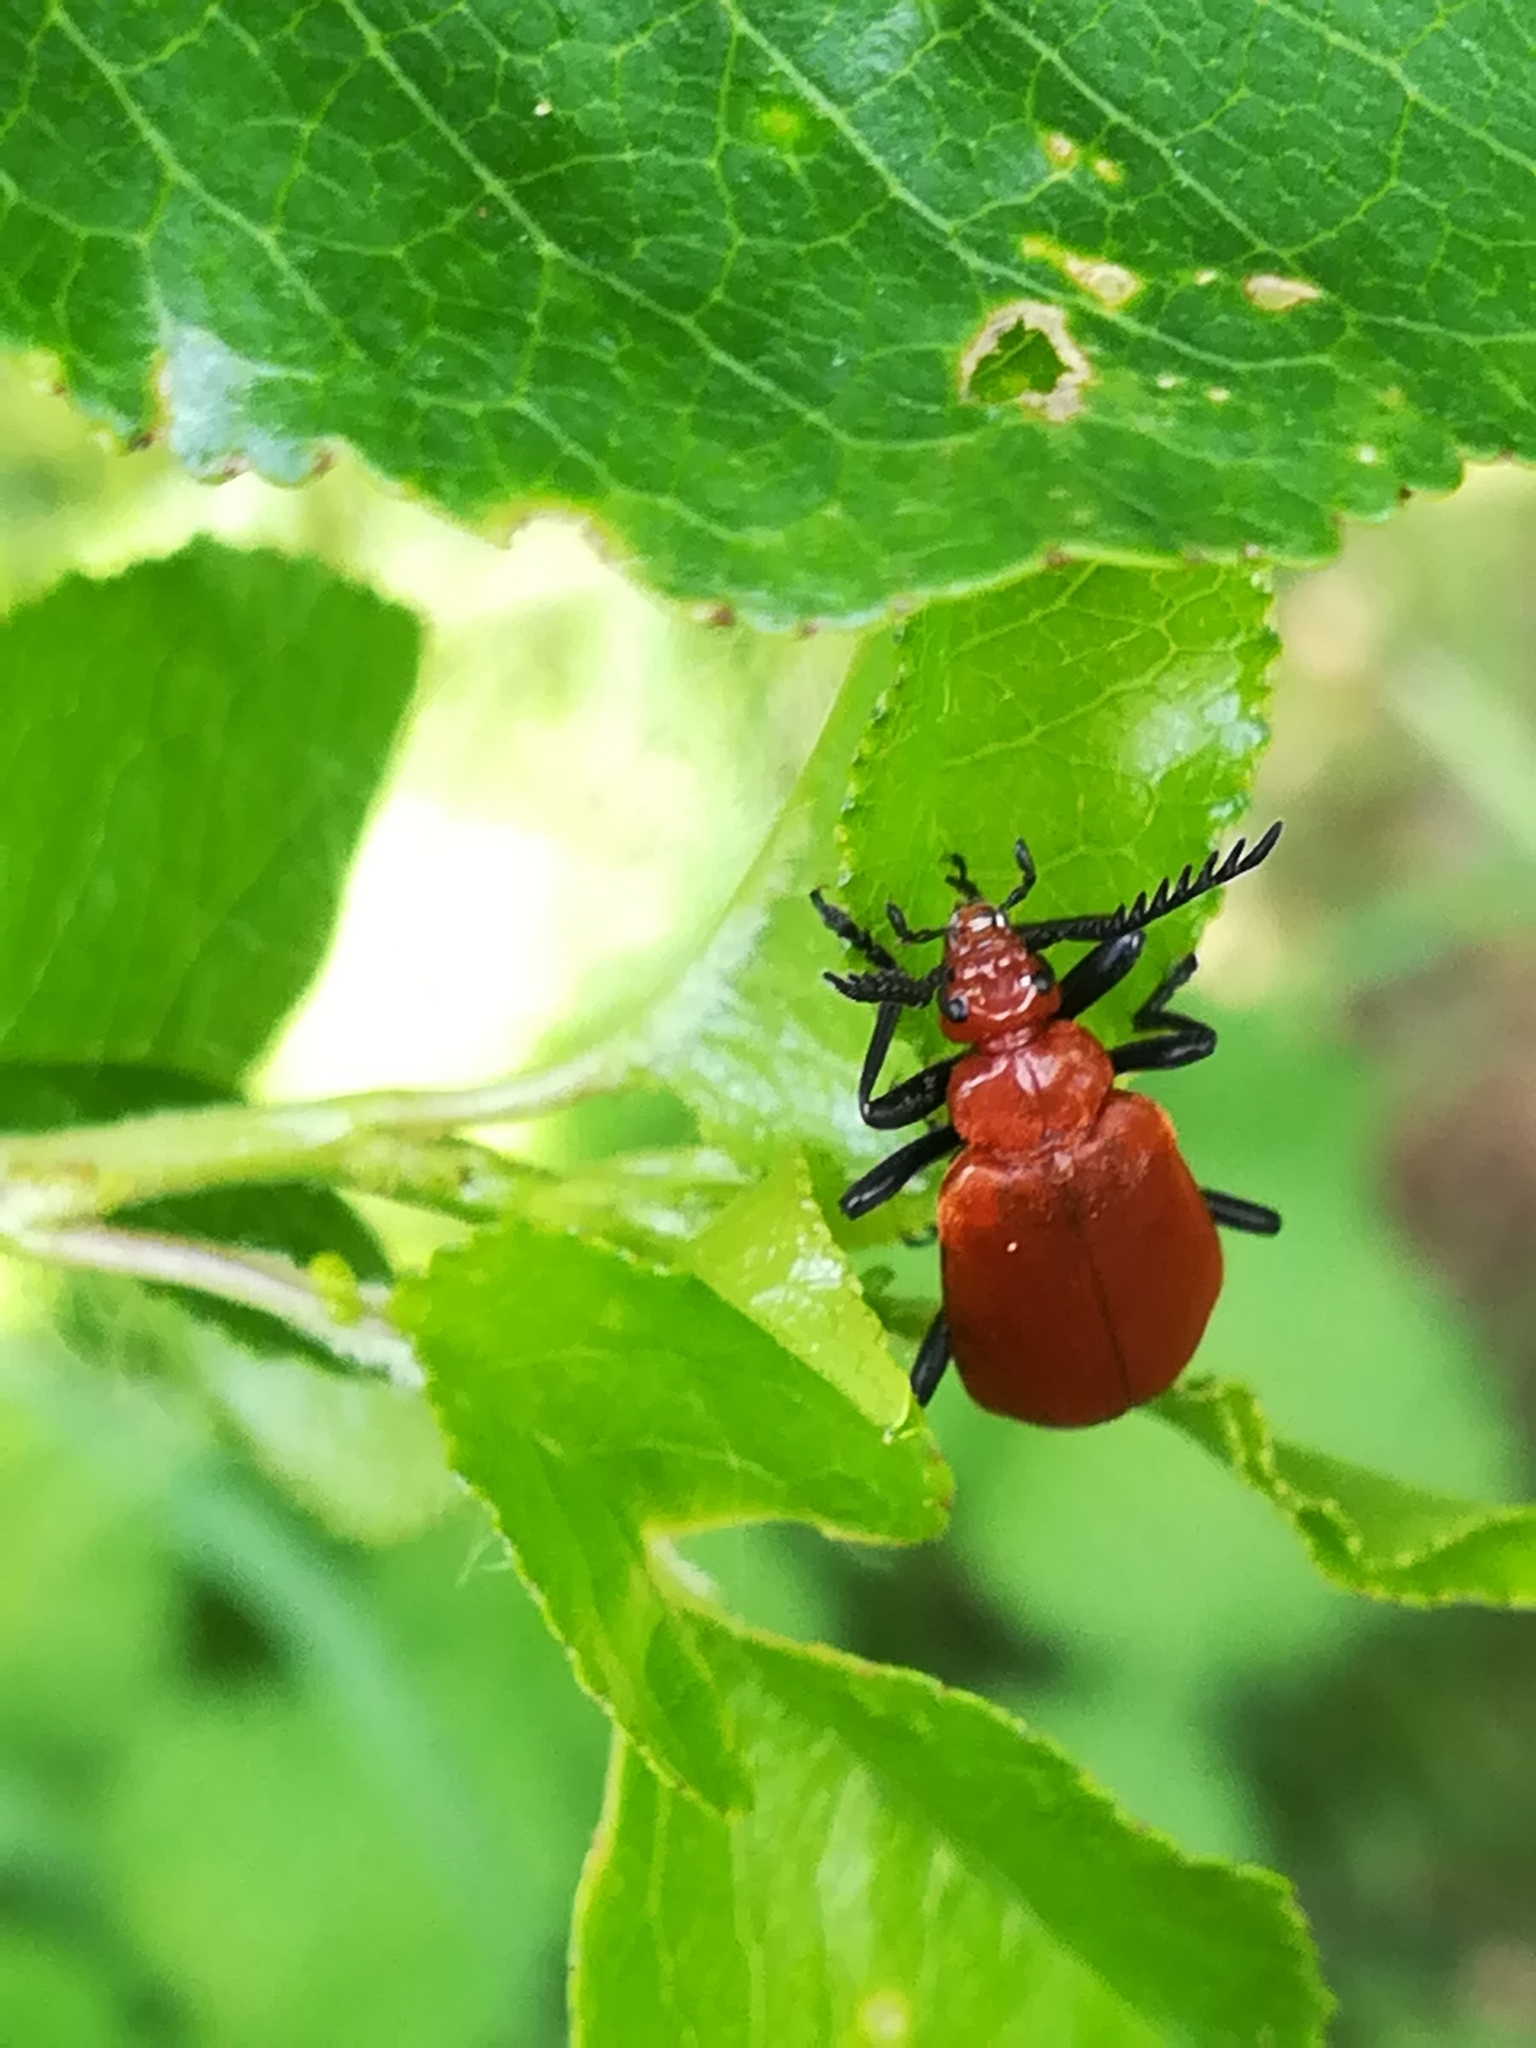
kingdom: Animalia
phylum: Arthropoda
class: Insecta
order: Coleoptera
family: Pyrochroidae
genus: Pyrochroa
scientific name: Pyrochroa serraticornis
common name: Red-headed cardinal beetle
